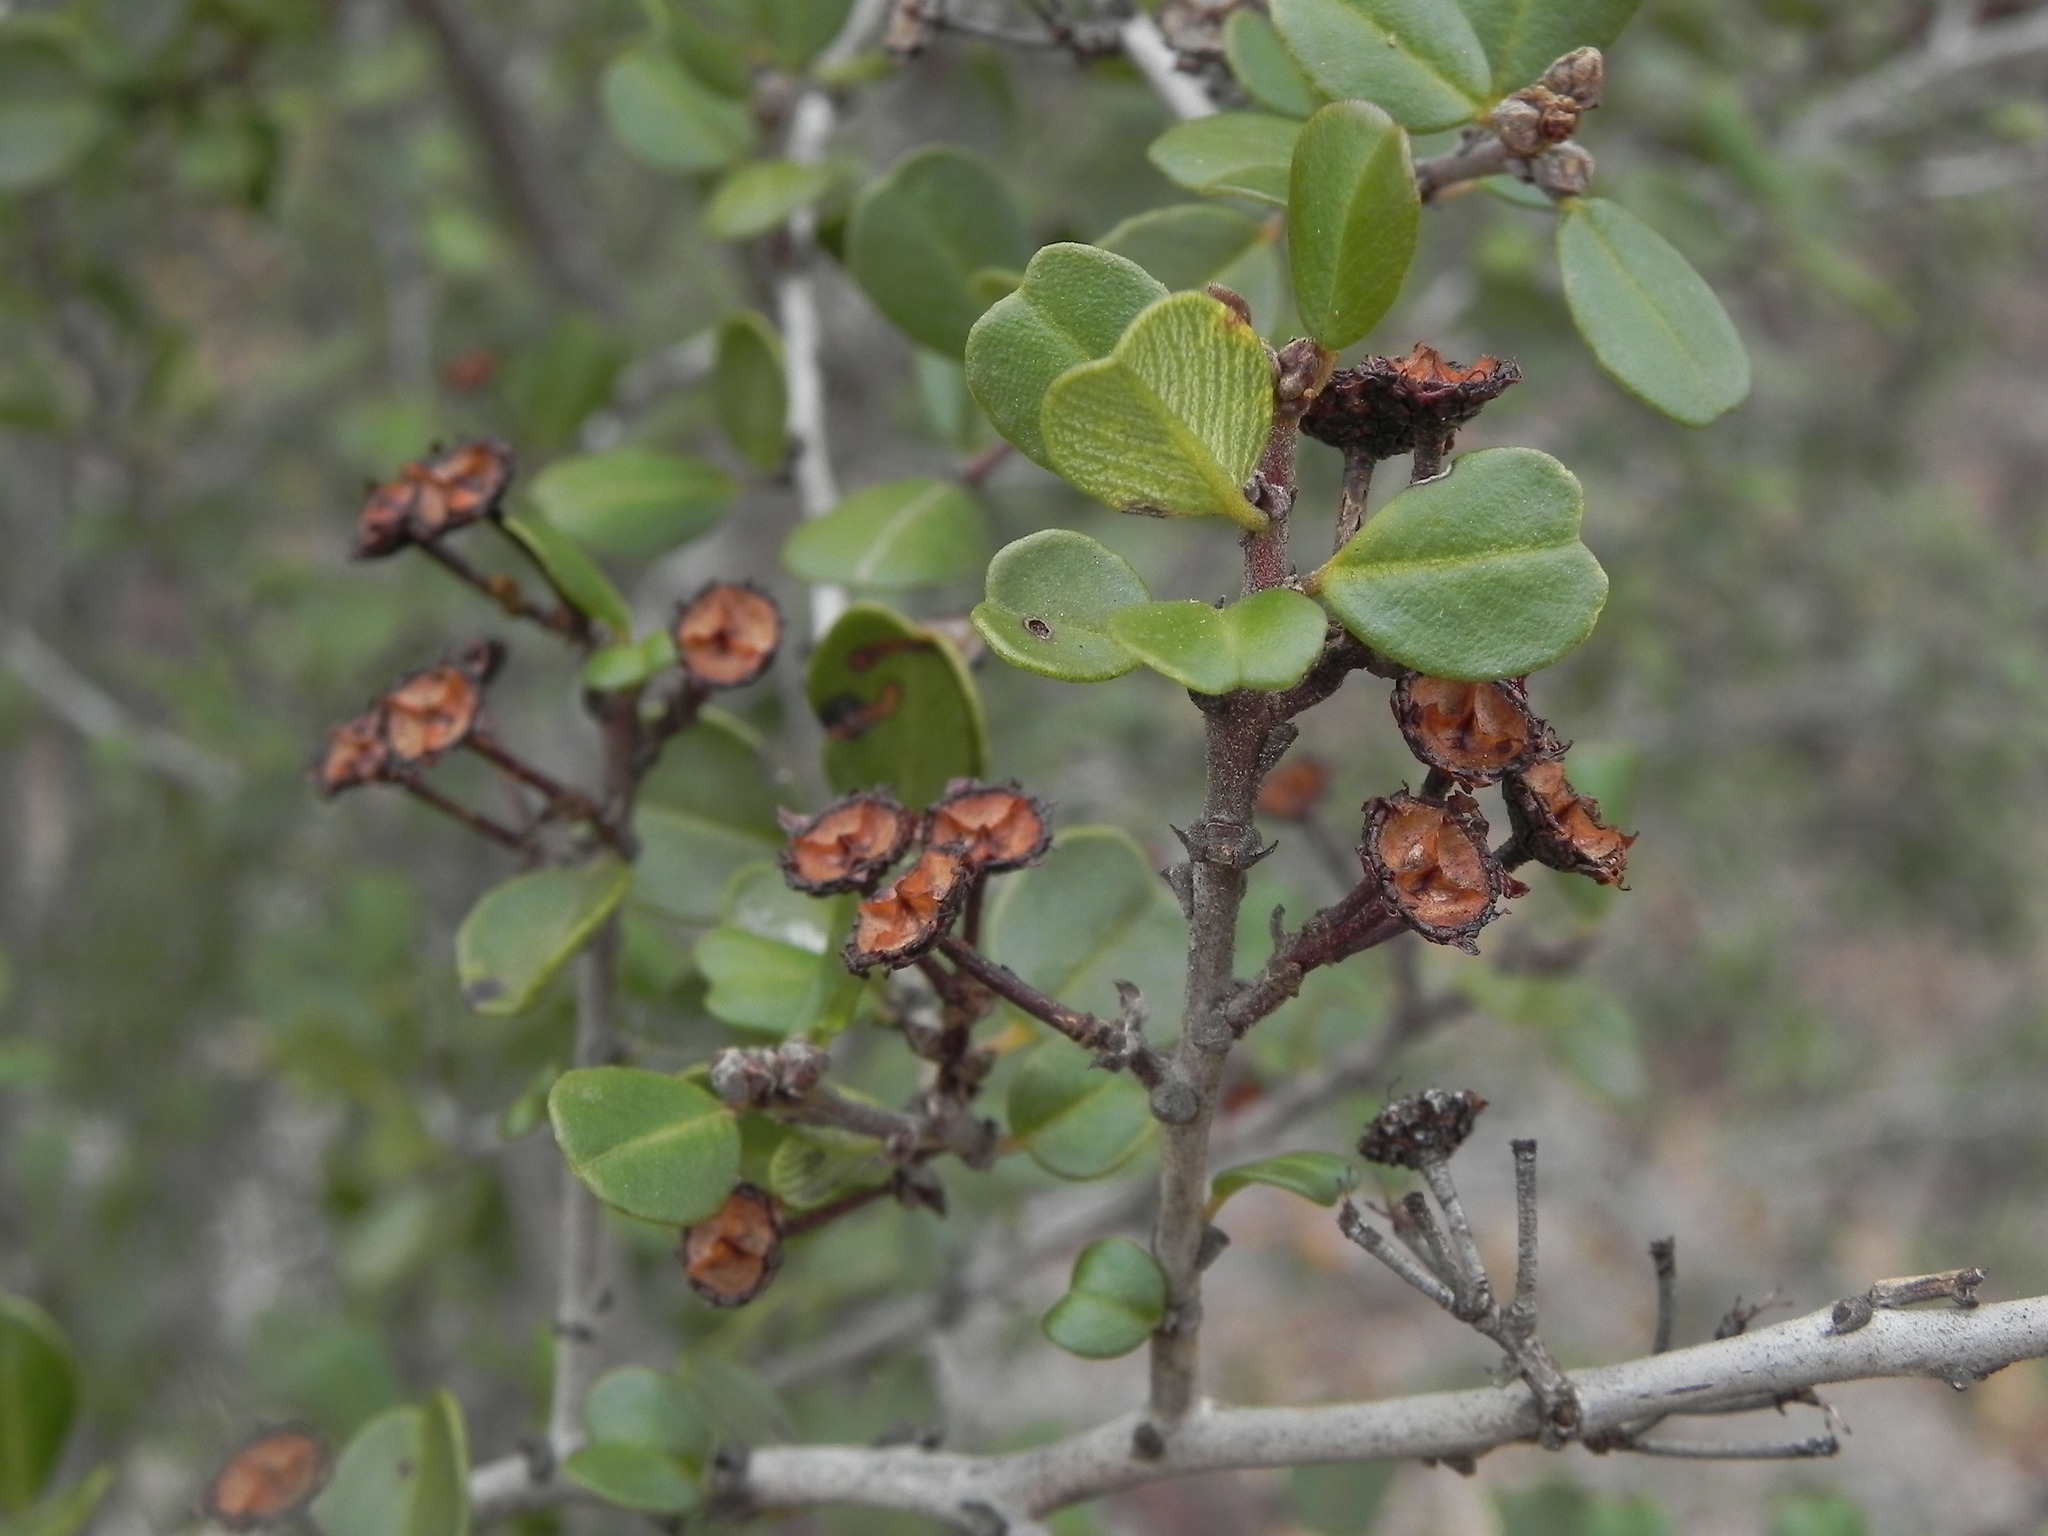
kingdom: Plantae
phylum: Tracheophyta
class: Magnoliopsida
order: Rosales
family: Rhamnaceae
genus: Ceanothus
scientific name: Ceanothus verrucosus
